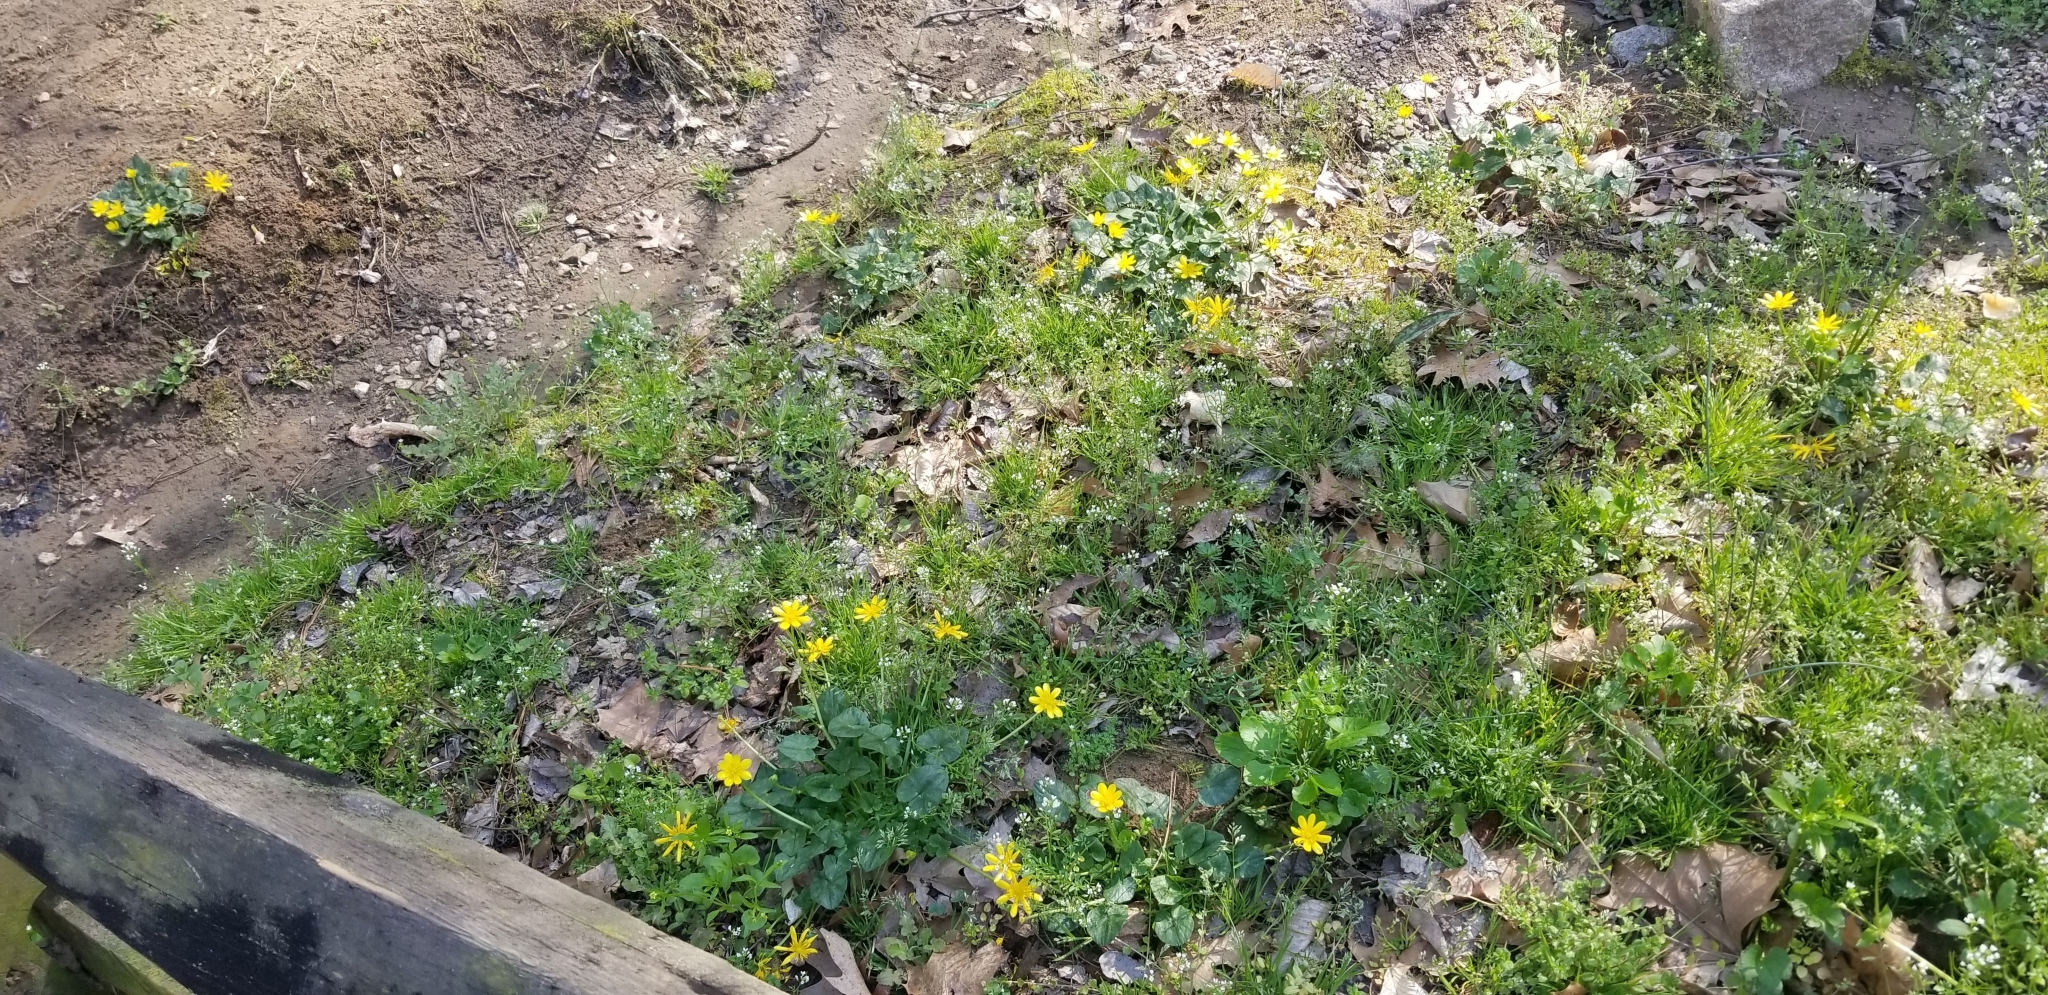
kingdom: Plantae
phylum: Tracheophyta
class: Magnoliopsida
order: Ranunculales
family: Ranunculaceae
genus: Ficaria
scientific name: Ficaria verna
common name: Lesser celandine
